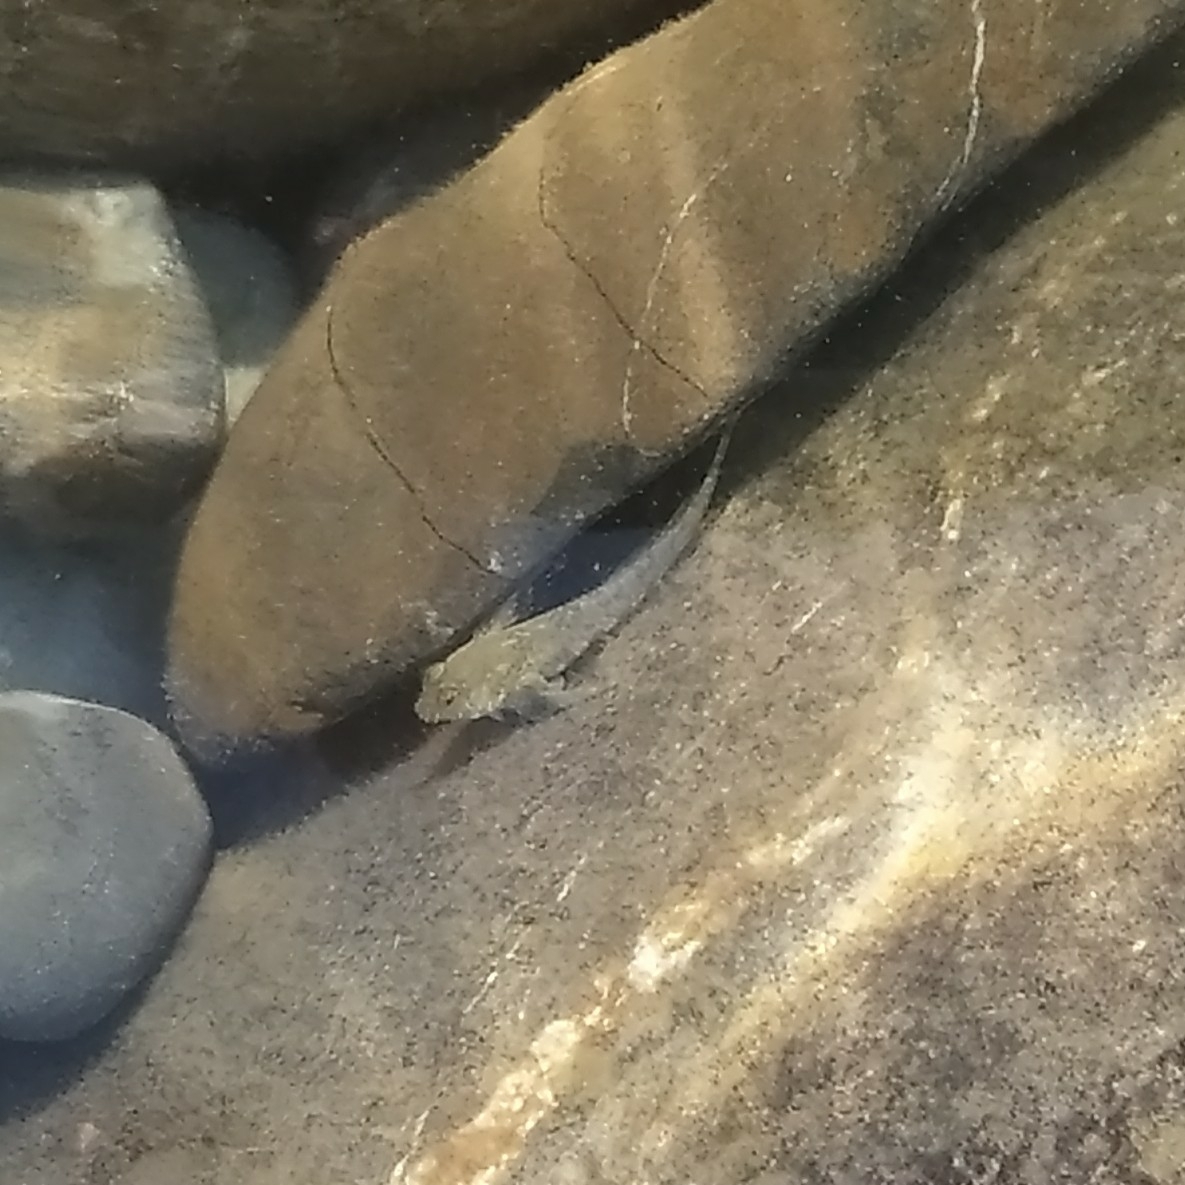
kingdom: Animalia
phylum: Chordata
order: Perciformes
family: Blenniidae
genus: Aidablennius
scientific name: Aidablennius sphynx
